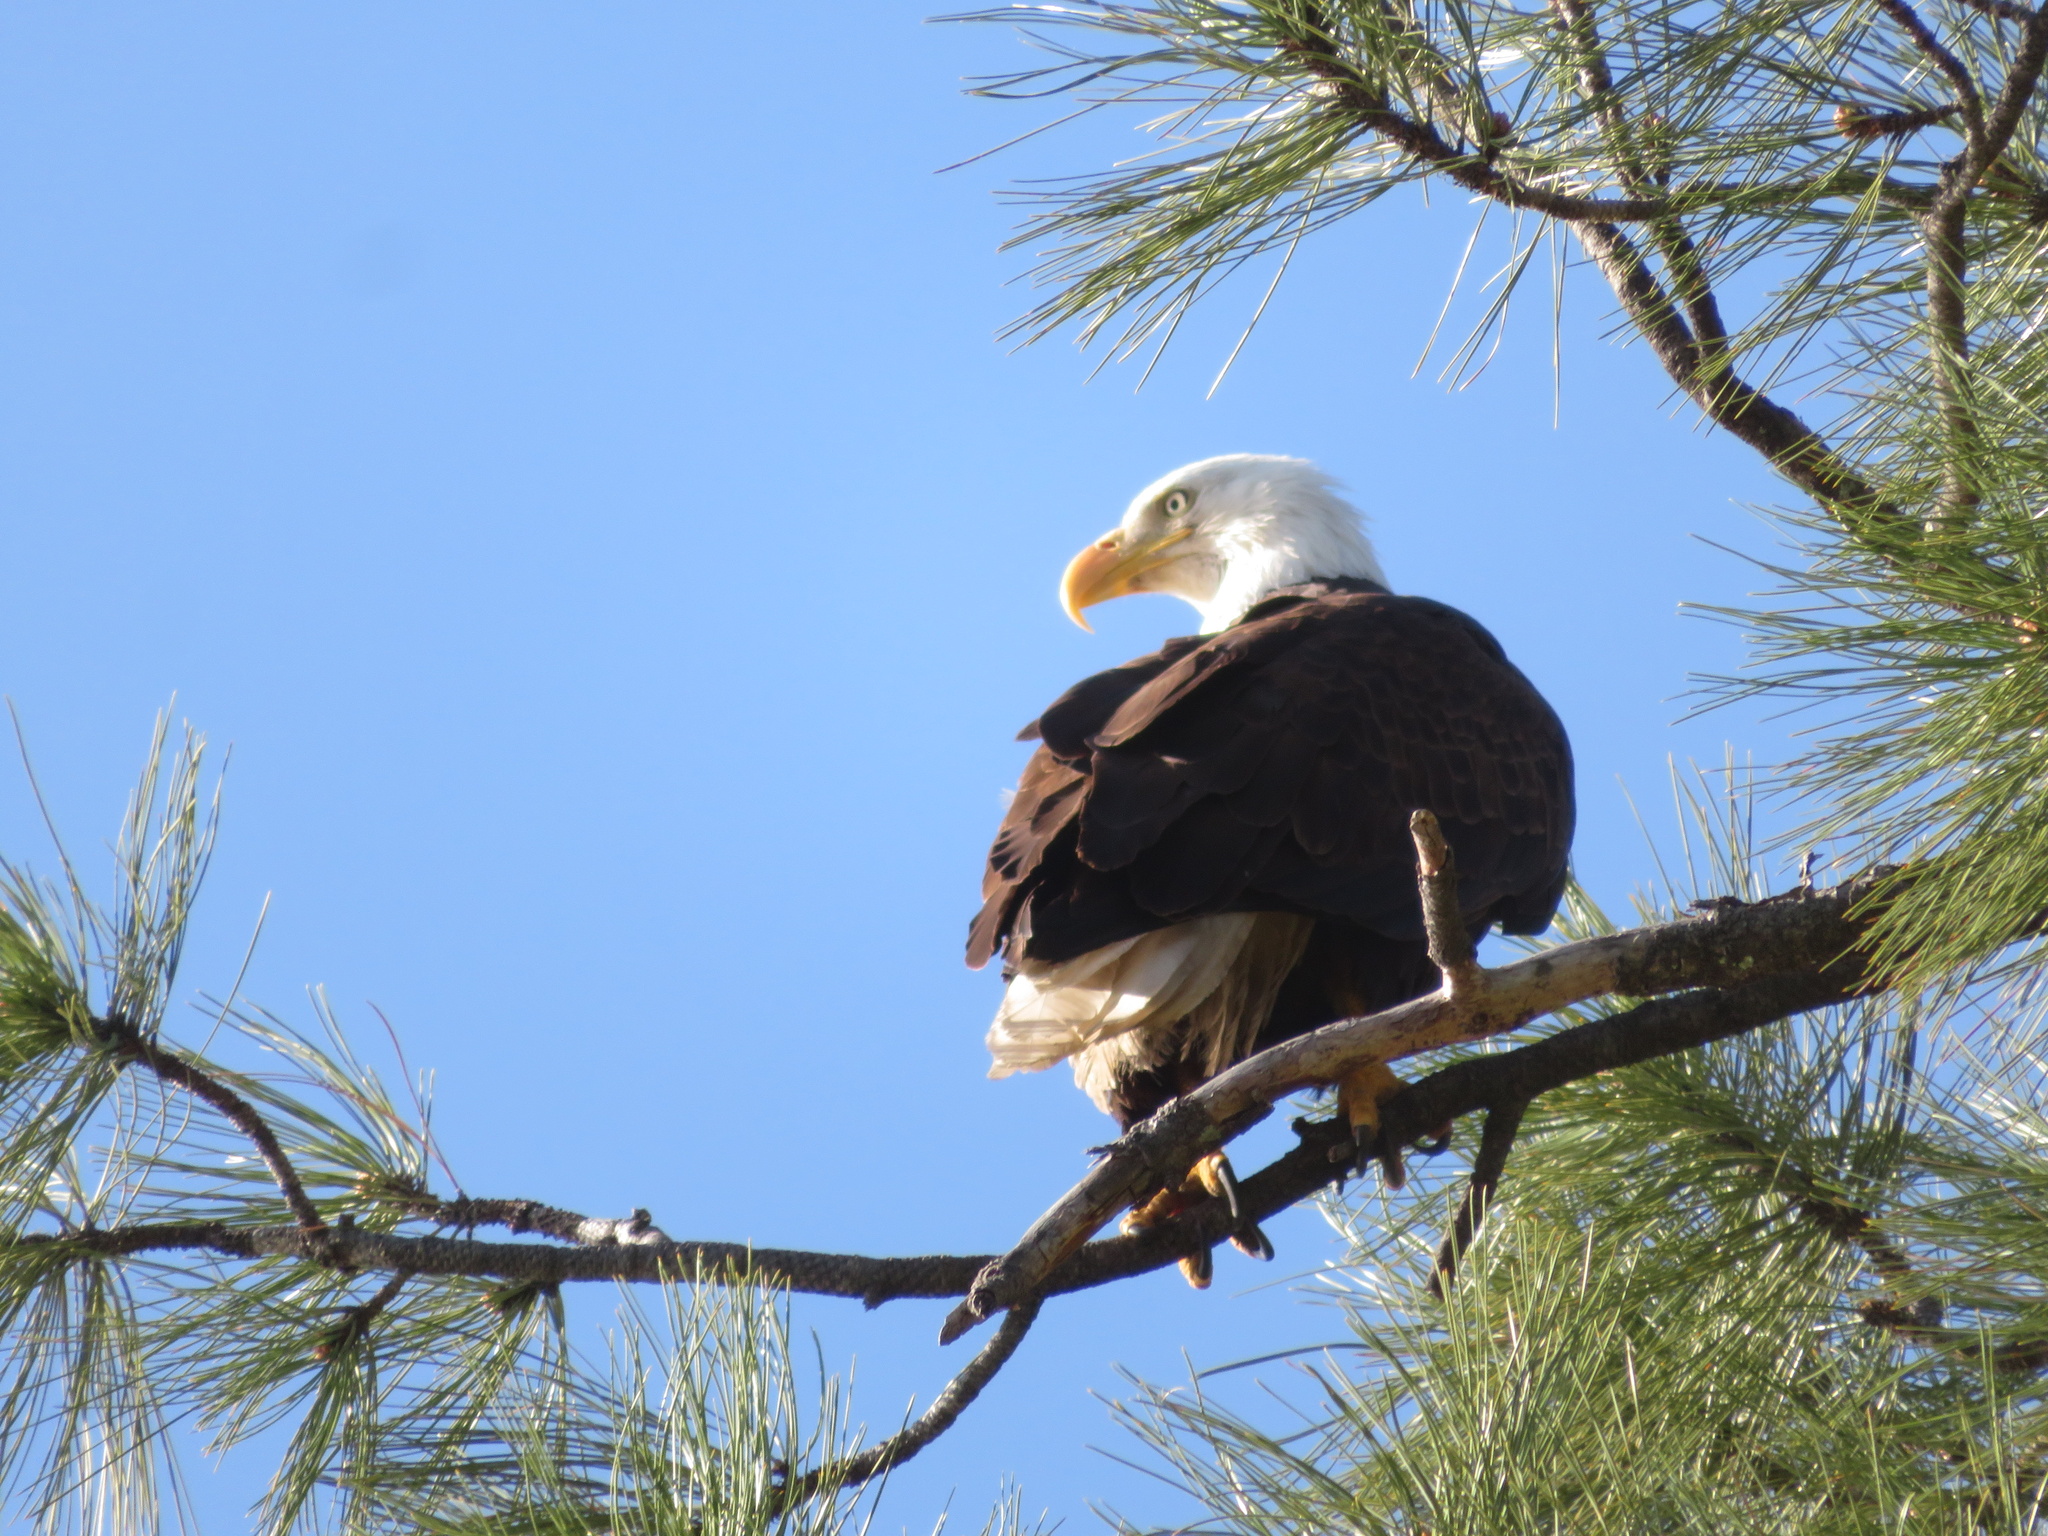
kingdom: Animalia
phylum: Chordata
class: Aves
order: Accipitriformes
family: Accipitridae
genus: Haliaeetus
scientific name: Haliaeetus leucocephalus
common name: Bald eagle
